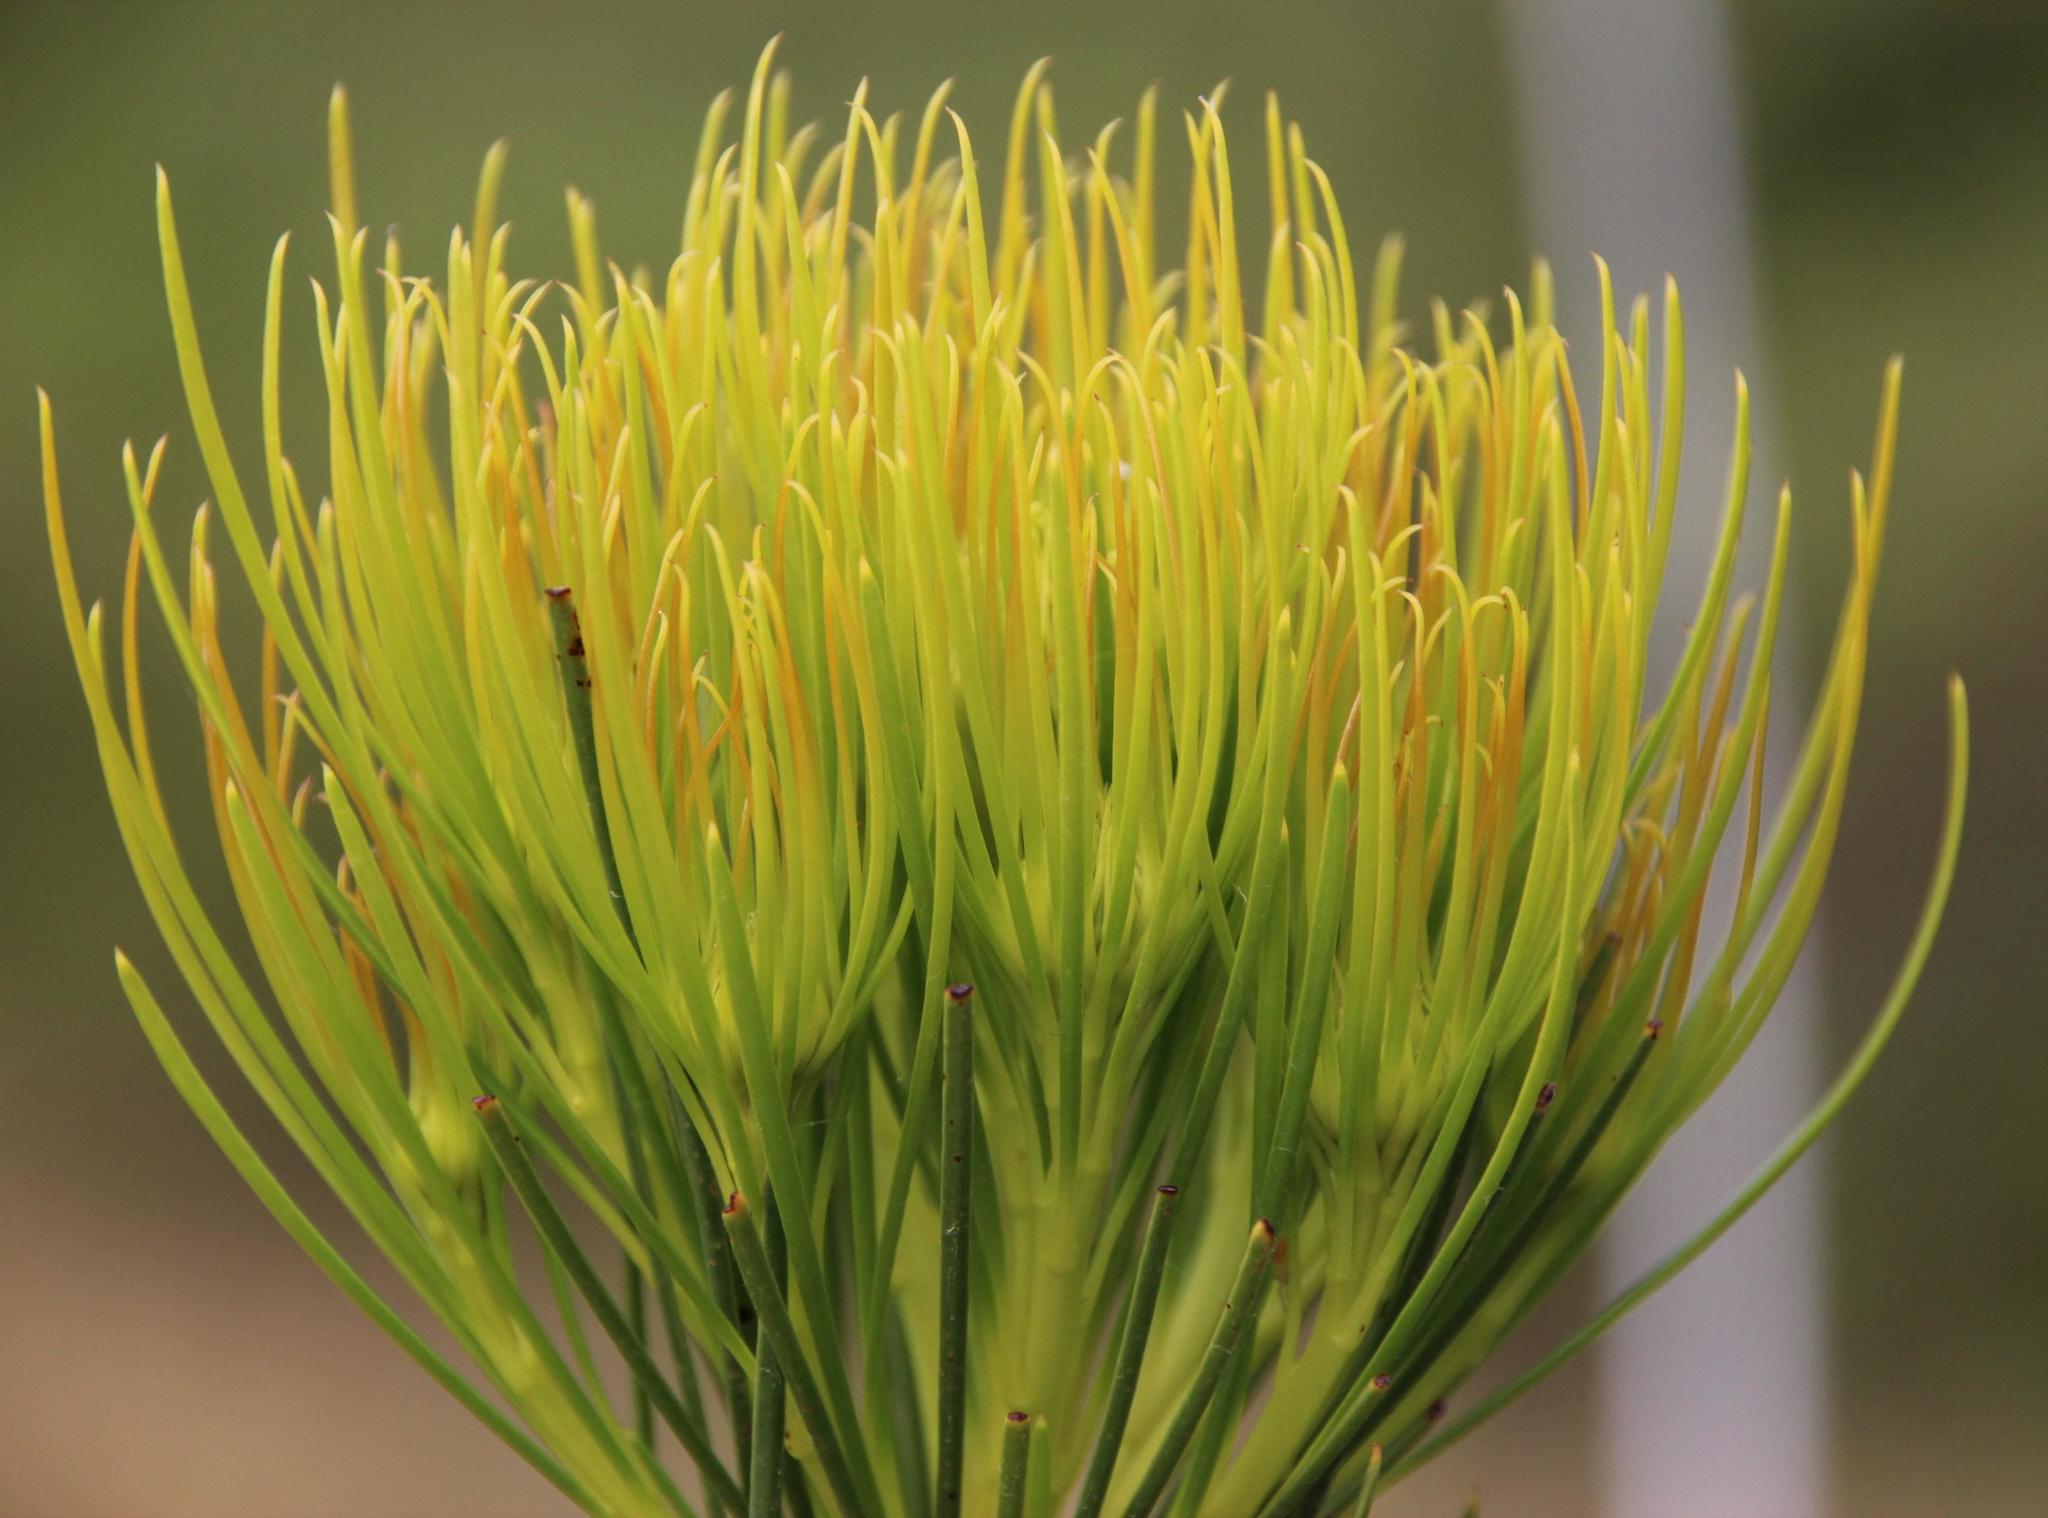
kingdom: Plantae
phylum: Tracheophyta
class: Magnoliopsida
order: Proteales
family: Proteaceae
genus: Aulax
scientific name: Aulax pallasia
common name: Needle-leaf featherbush
